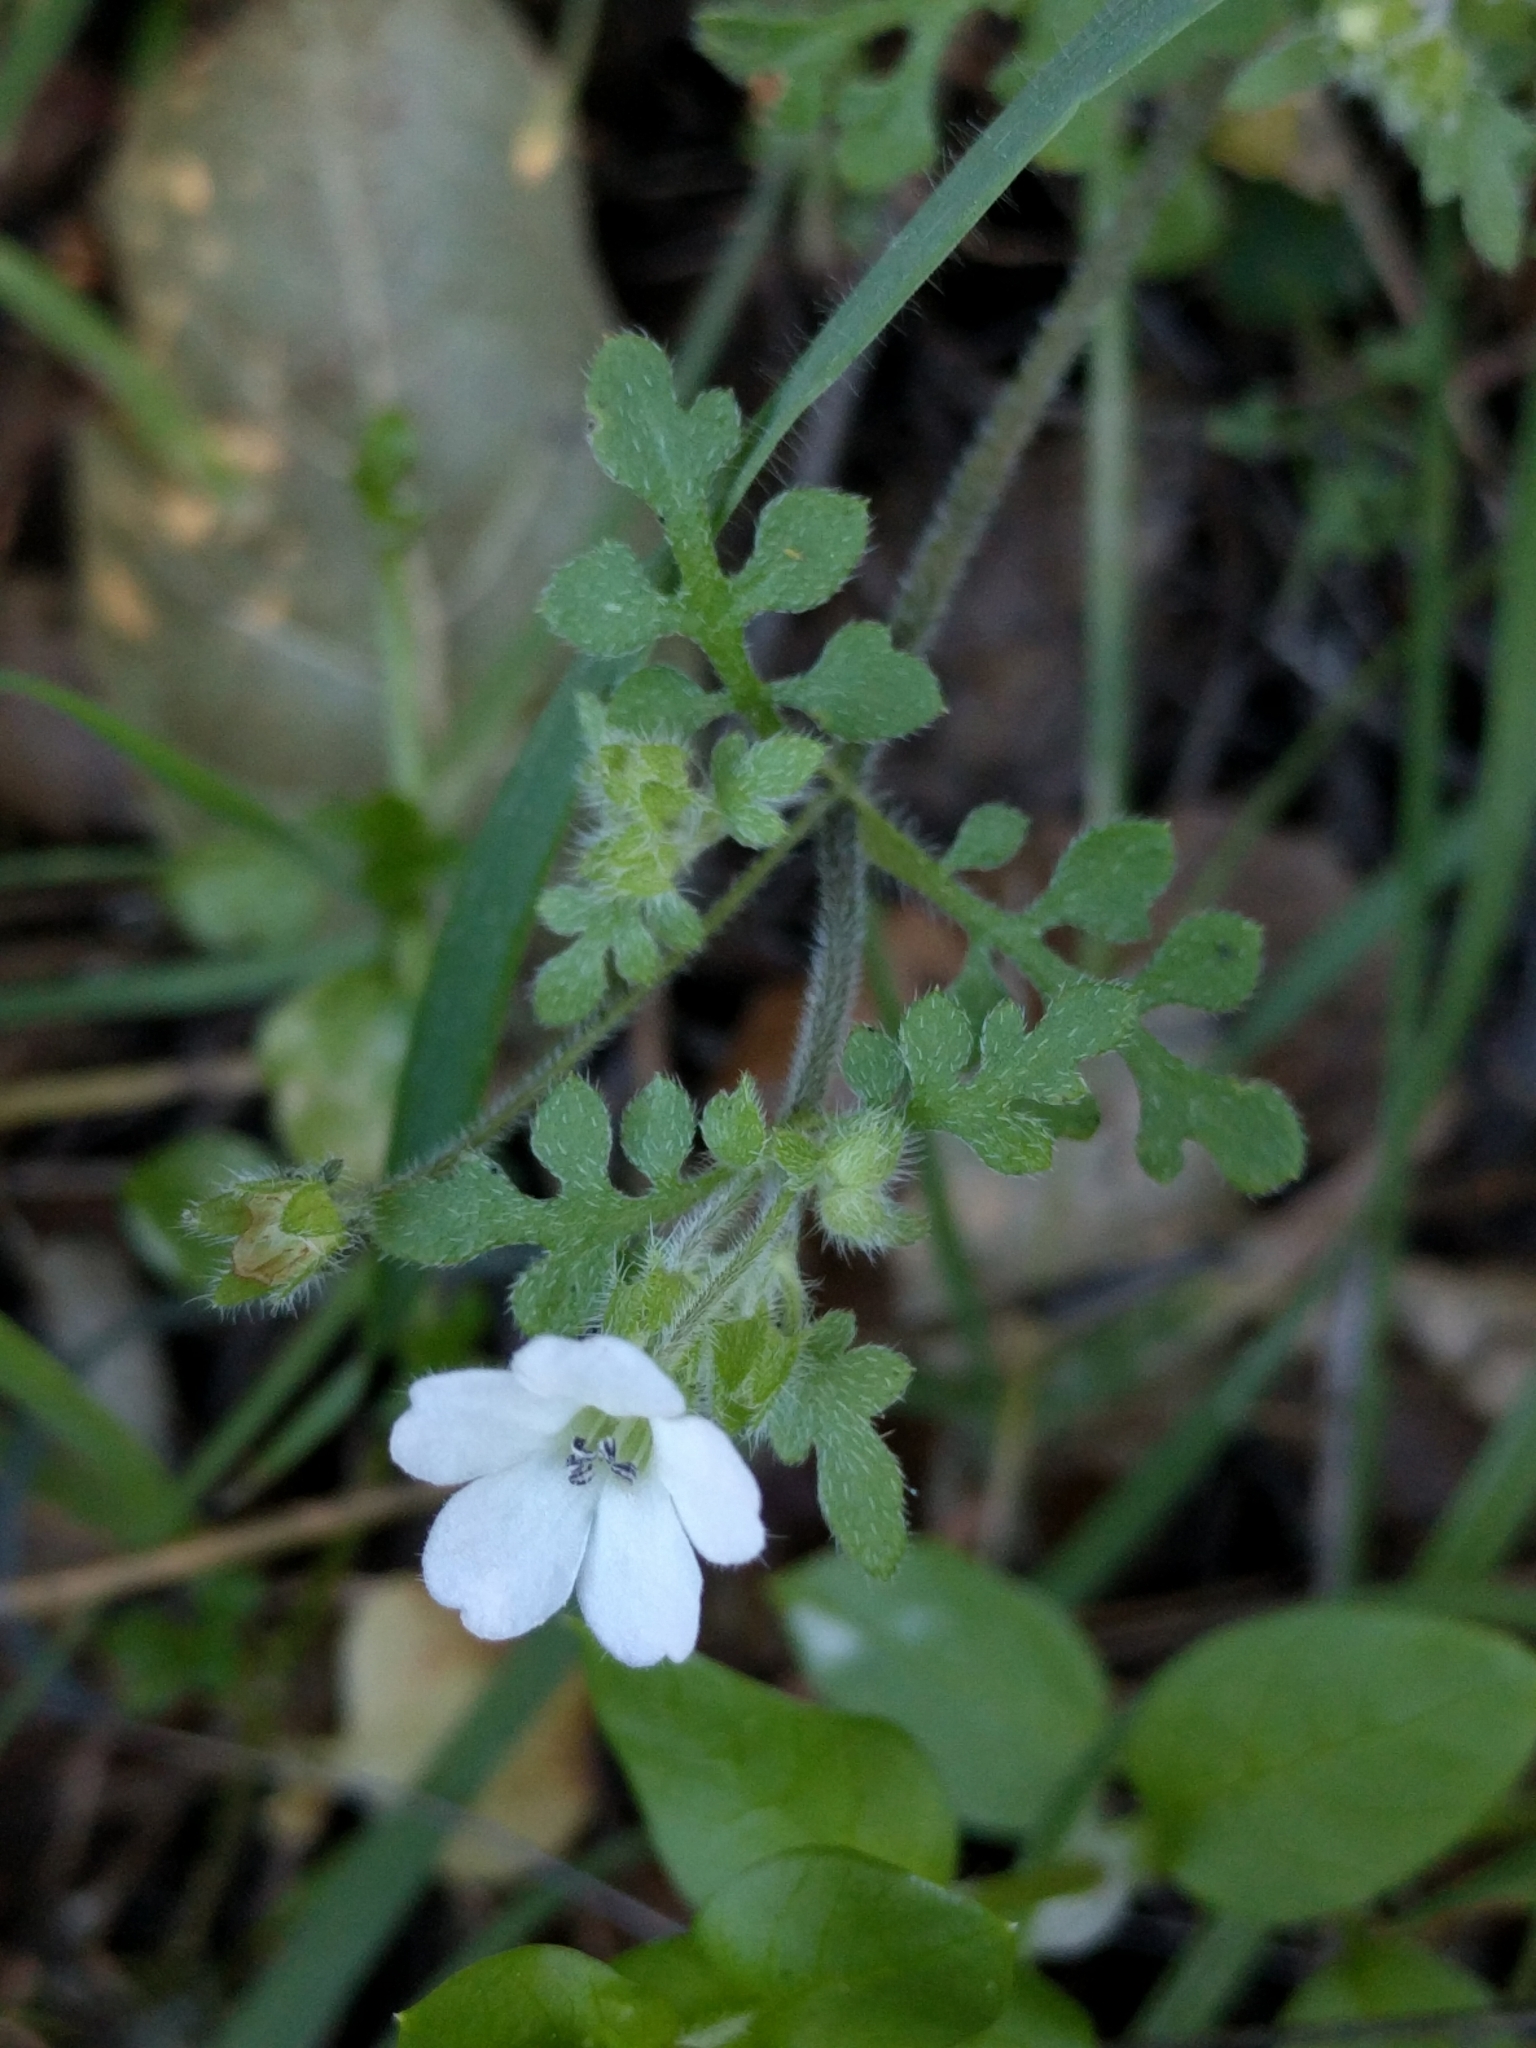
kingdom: Plantae
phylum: Tracheophyta
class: Magnoliopsida
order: Boraginales
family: Hydrophyllaceae
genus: Nemophila
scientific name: Nemophila heterophylla
